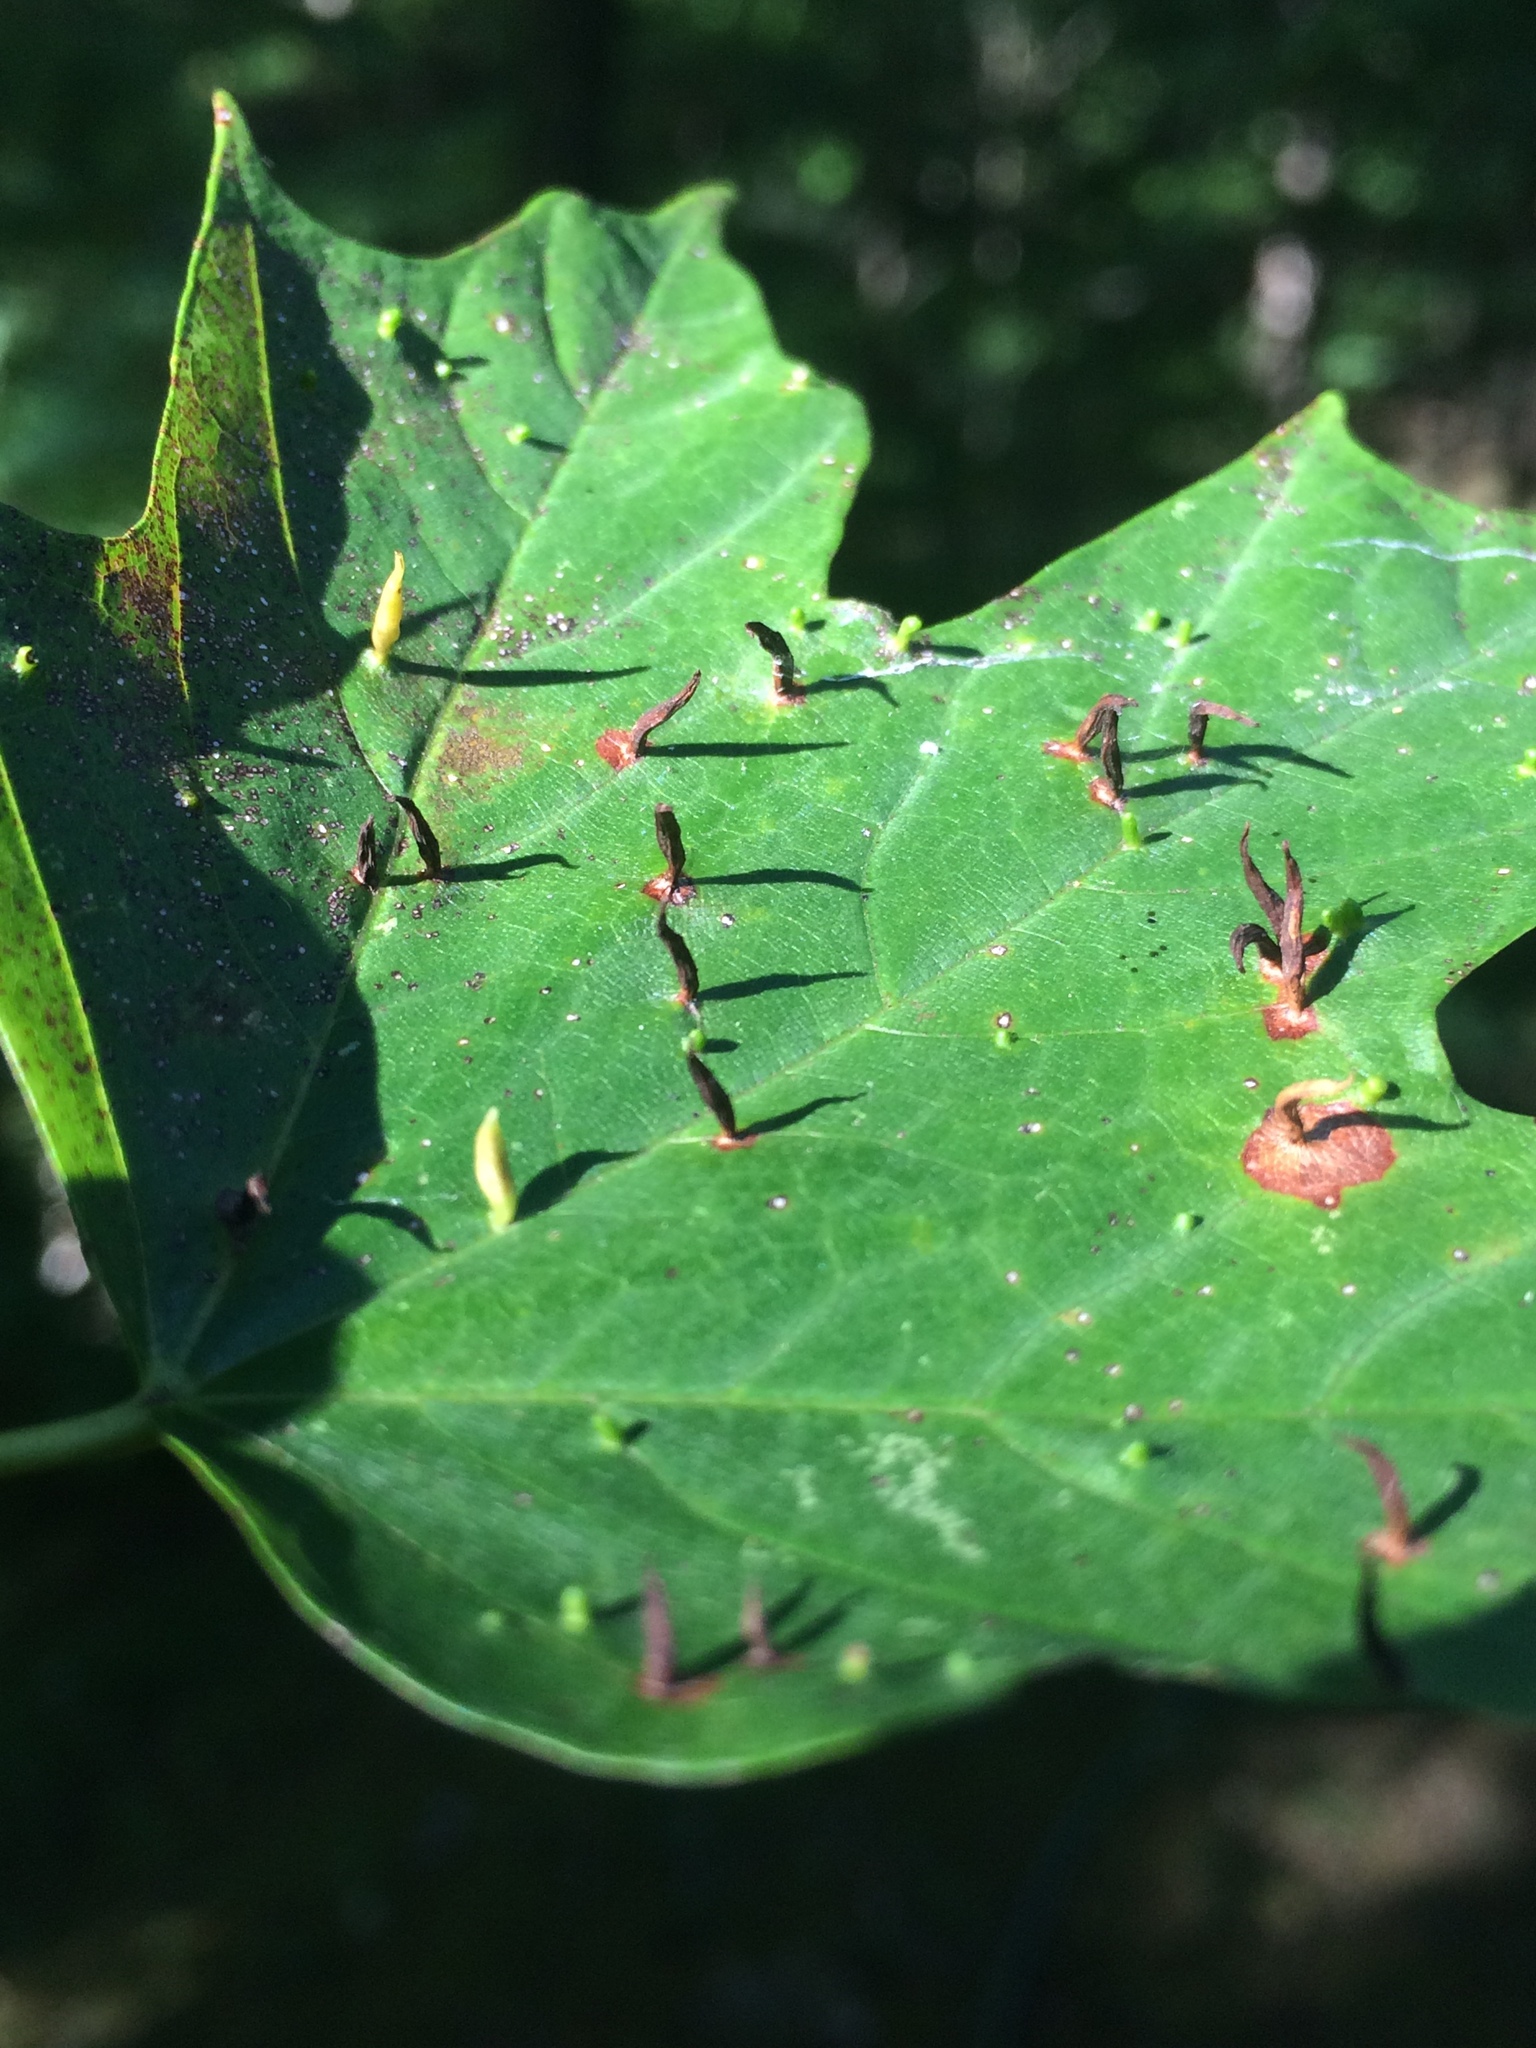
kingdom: Animalia
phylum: Arthropoda
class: Arachnida
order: Trombidiformes
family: Eriophyidae
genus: Vasates
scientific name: Vasates aceriscrumena
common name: Maple spindle gall mite
